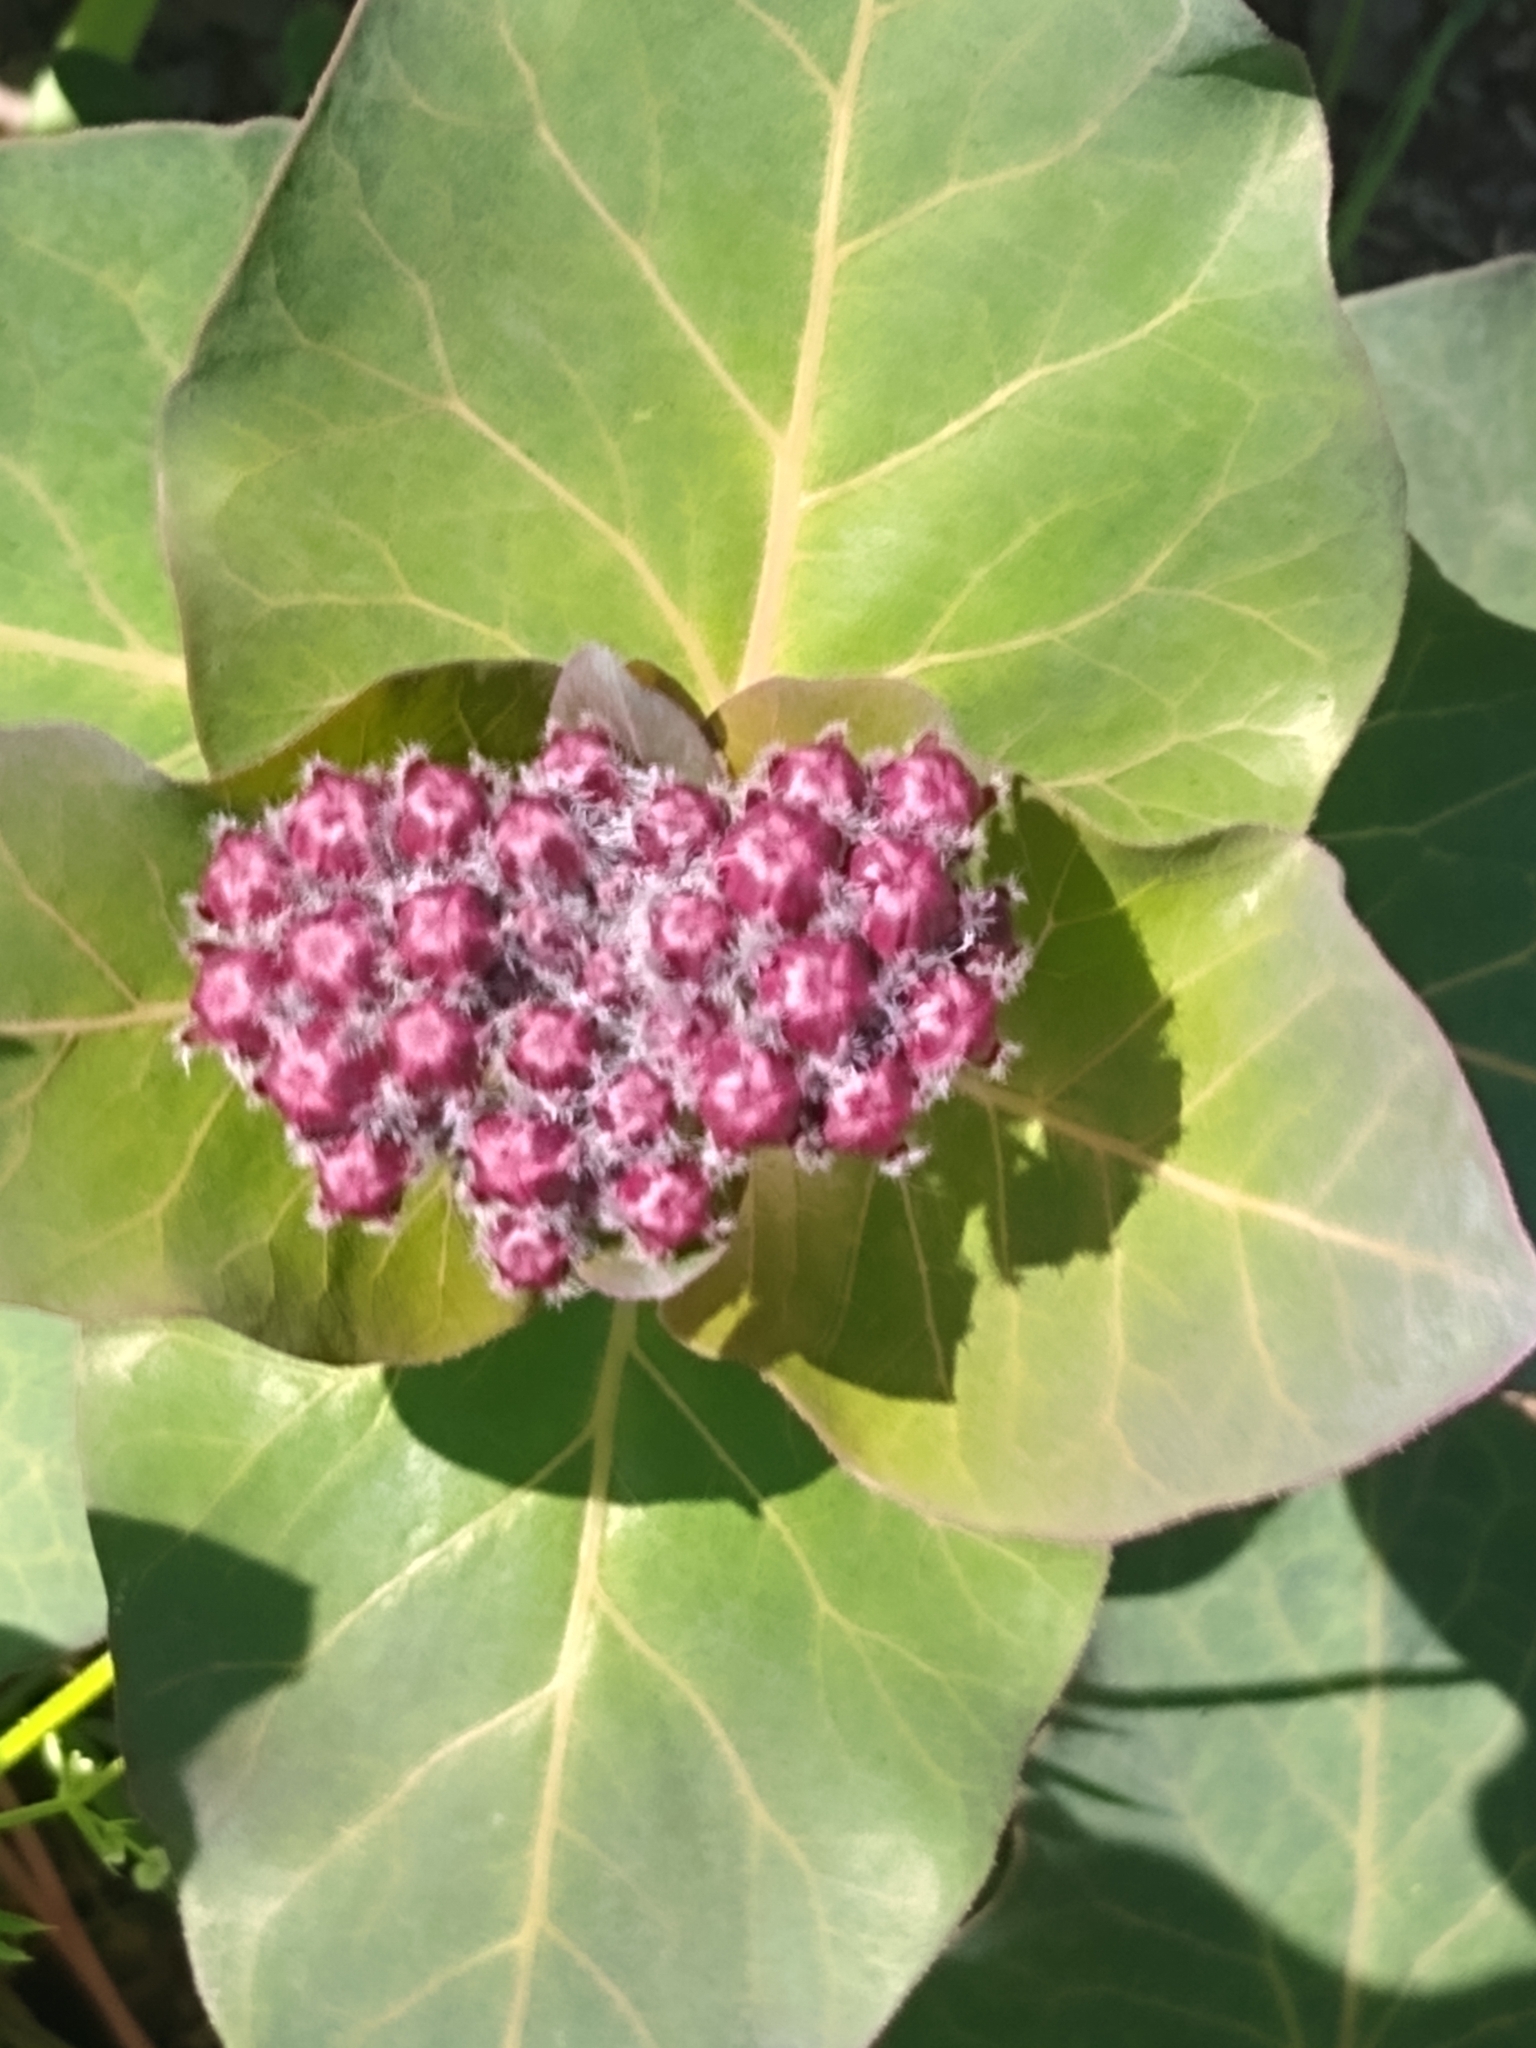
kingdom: Plantae
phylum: Tracheophyta
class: Magnoliopsida
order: Gentianales
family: Apocynaceae
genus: Asclepias
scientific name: Asclepias cordifolia
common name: Purple milkweed
